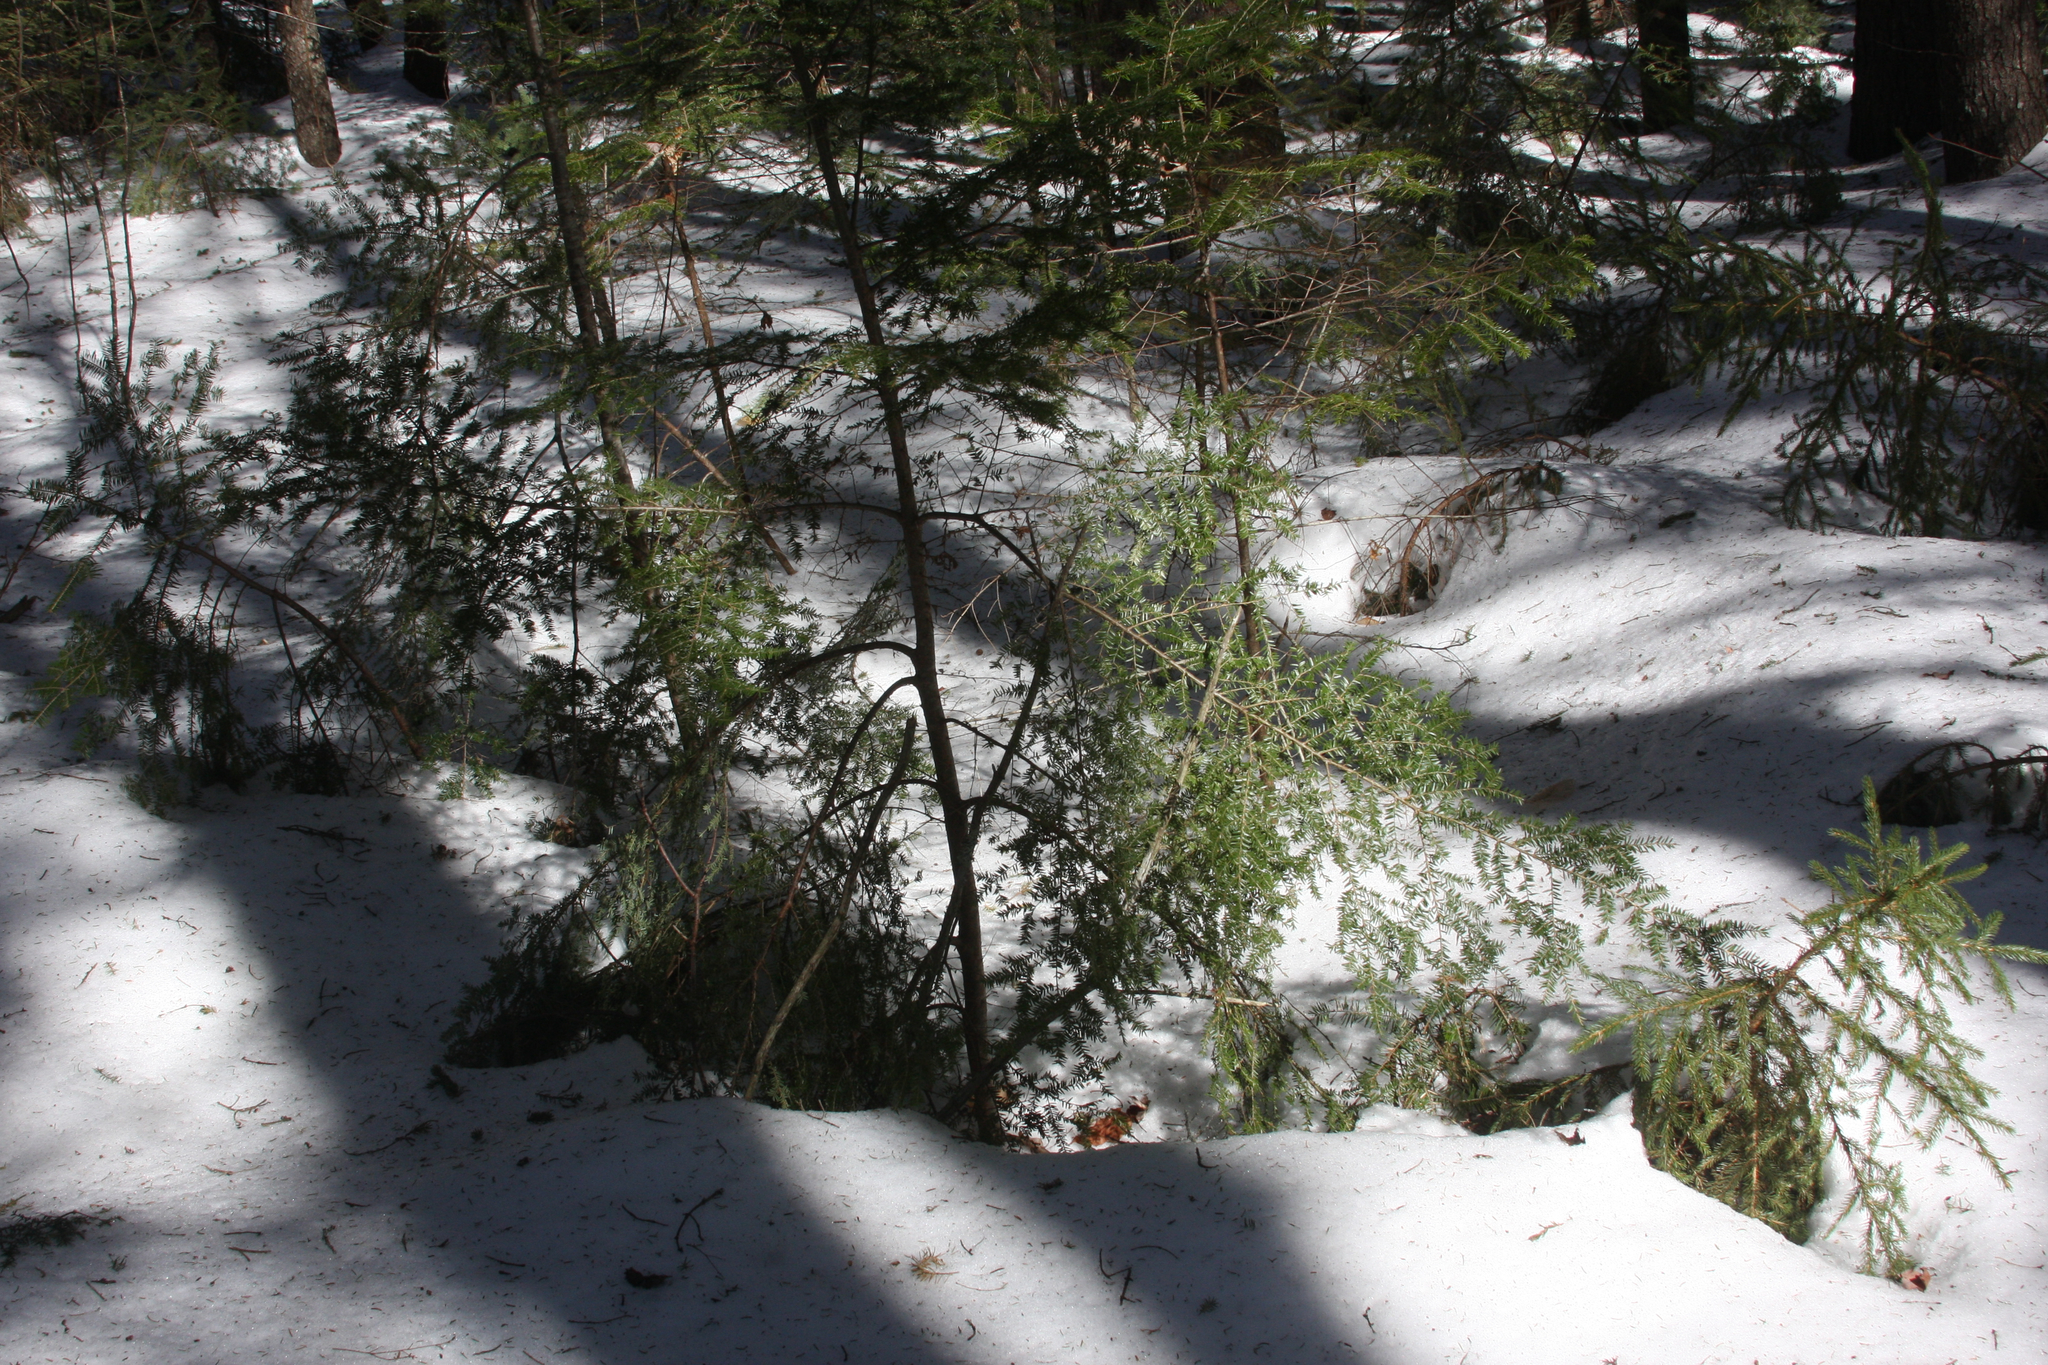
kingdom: Plantae
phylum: Tracheophyta
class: Pinopsida
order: Pinales
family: Pinaceae
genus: Tsuga
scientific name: Tsuga canadensis
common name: Eastern hemlock
